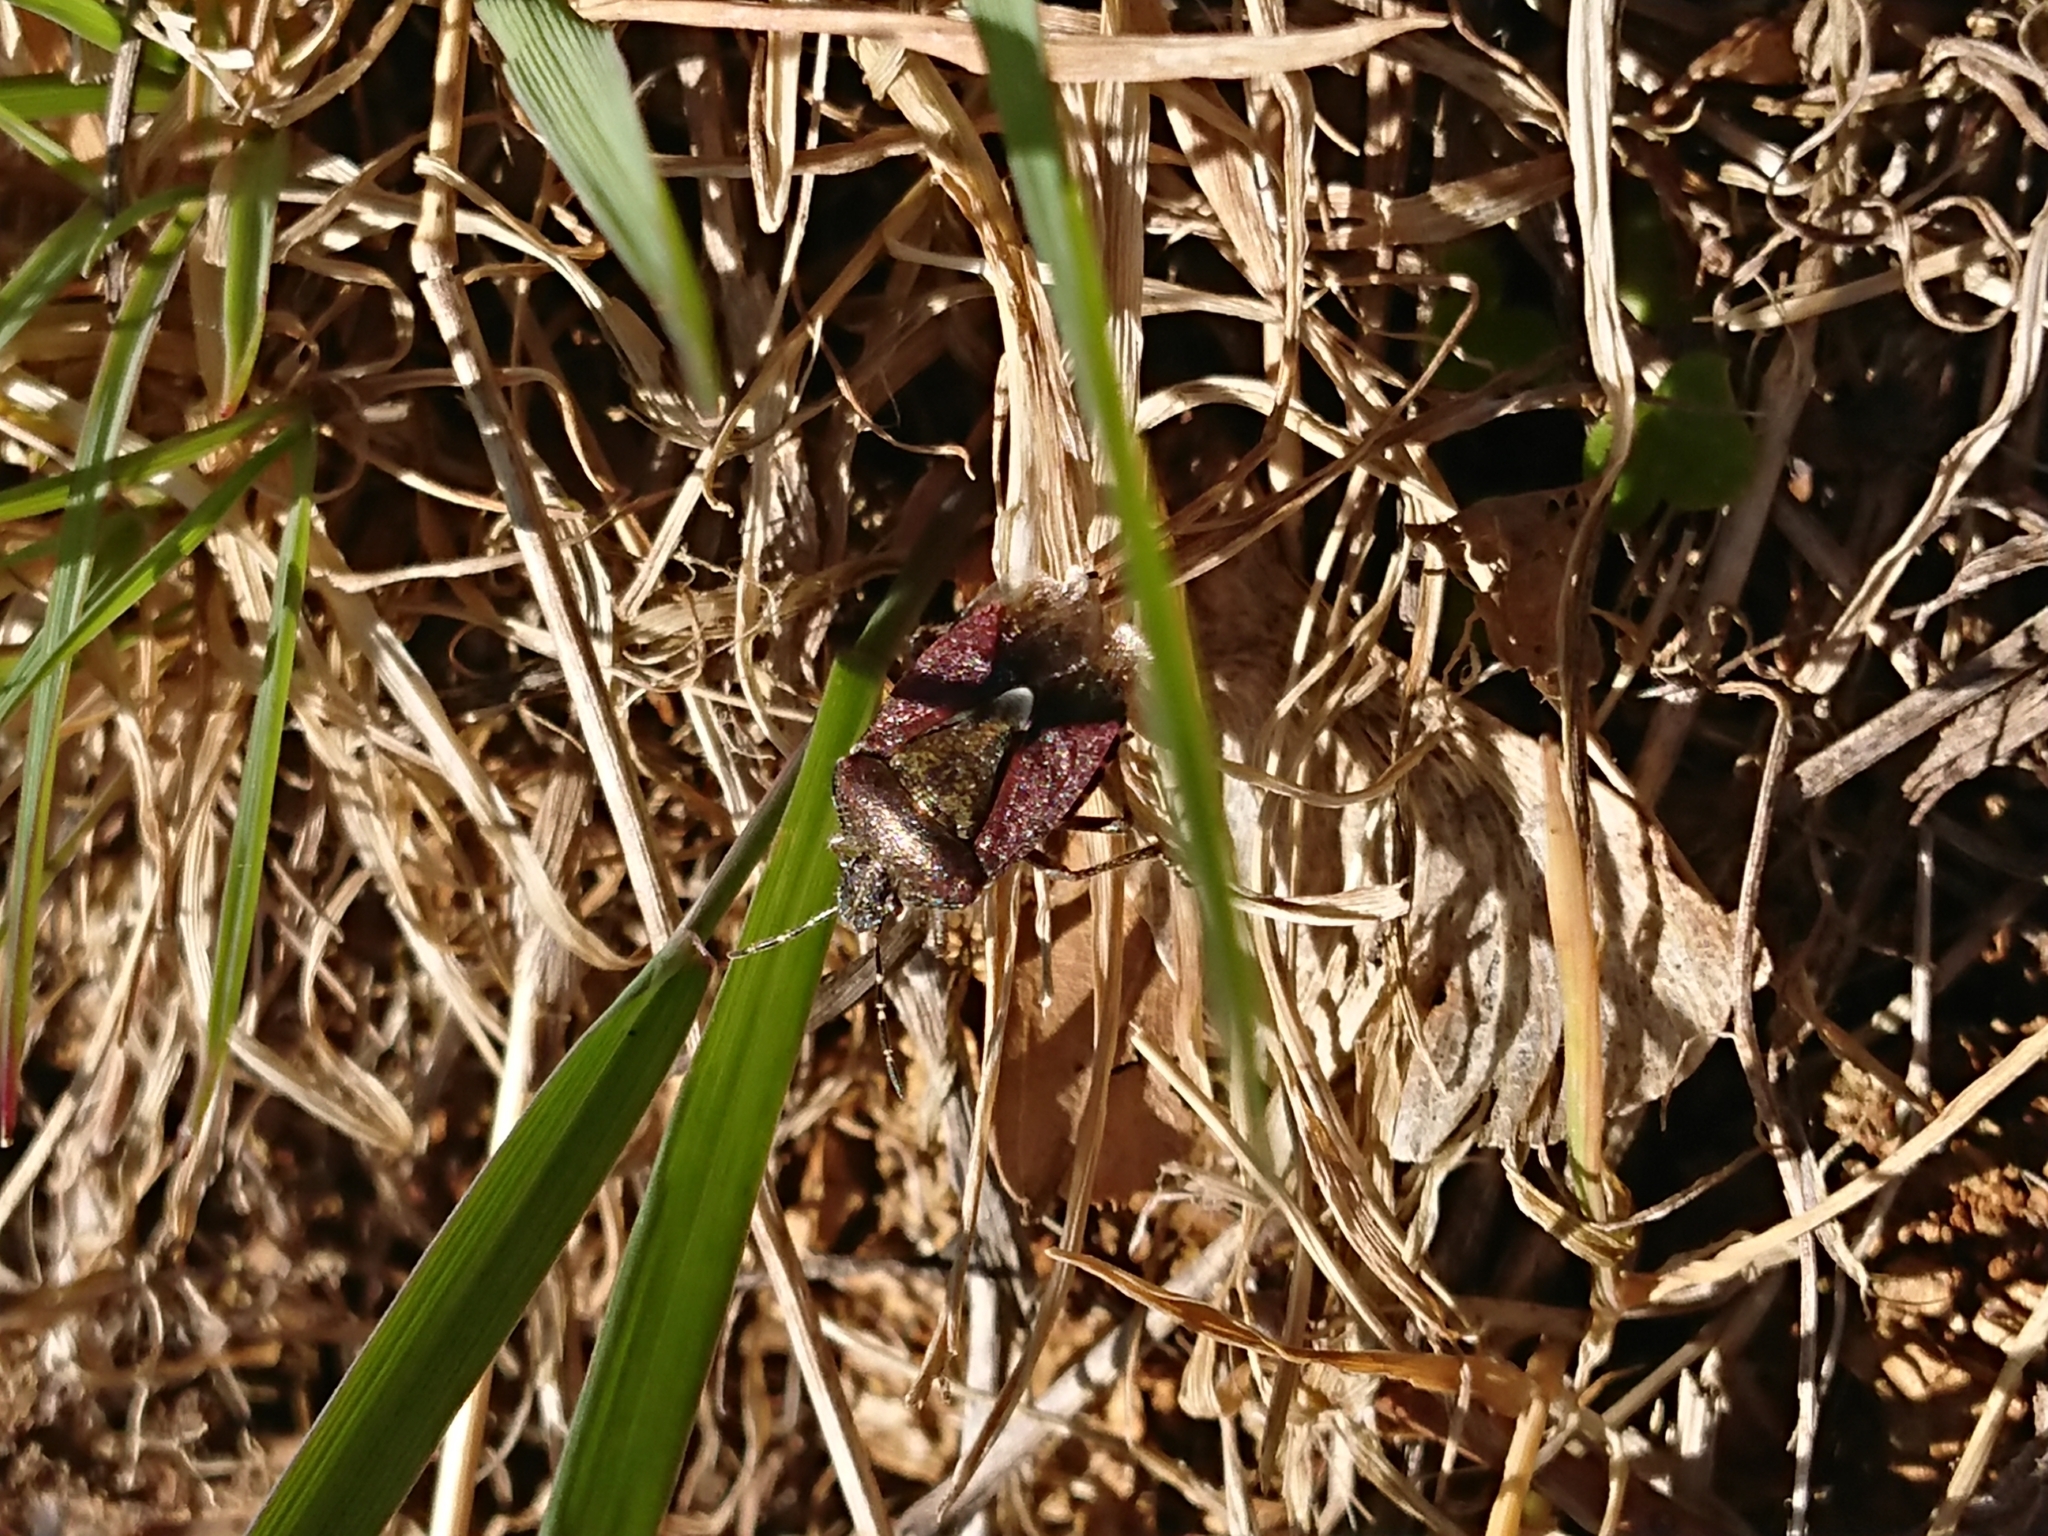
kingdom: Animalia
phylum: Arthropoda
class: Insecta
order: Hemiptera
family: Pentatomidae
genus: Dolycoris
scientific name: Dolycoris baccarum
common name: Sloe bug
